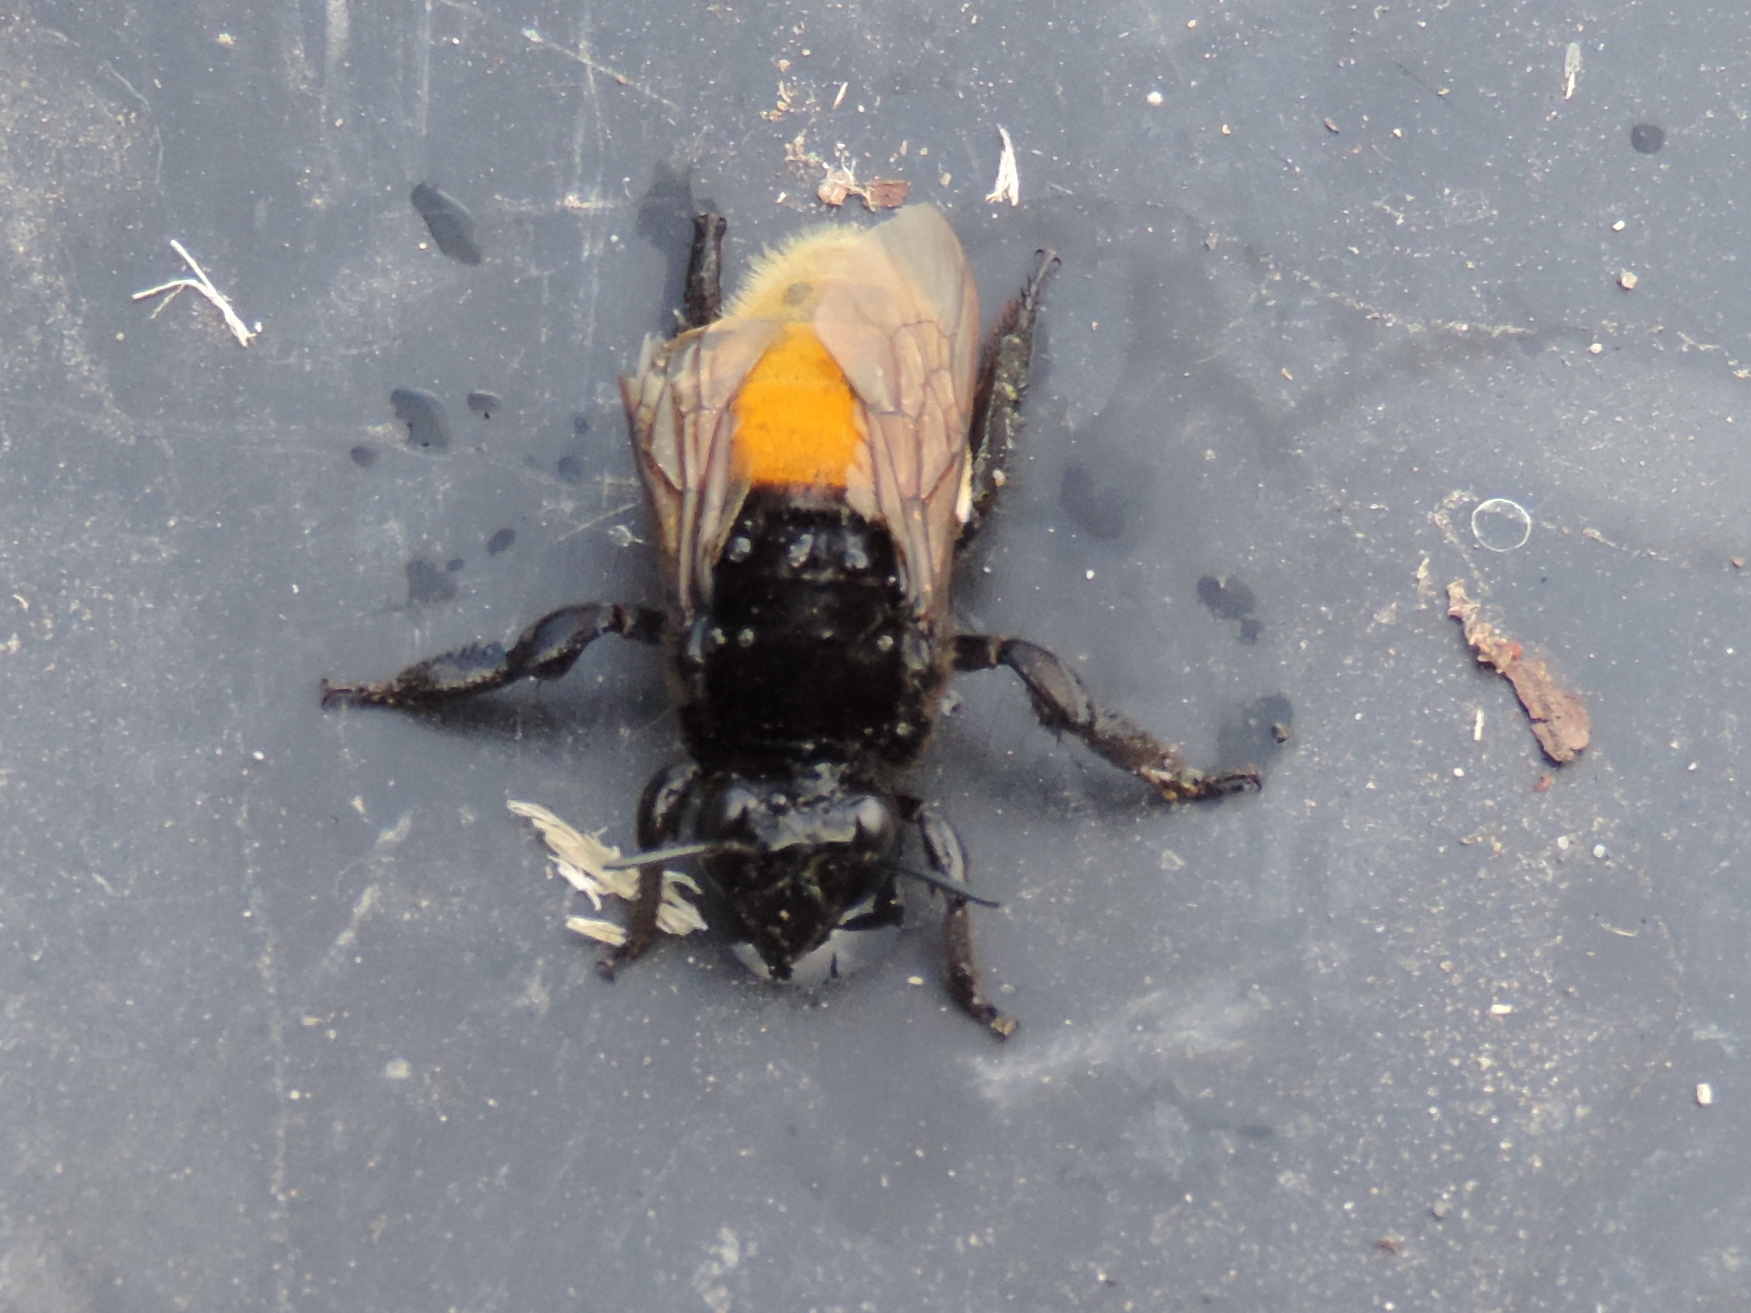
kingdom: Animalia
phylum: Arthropoda
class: Insecta
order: Hymenoptera
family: Apidae
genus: Eulaema
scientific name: Eulaema polychroma
